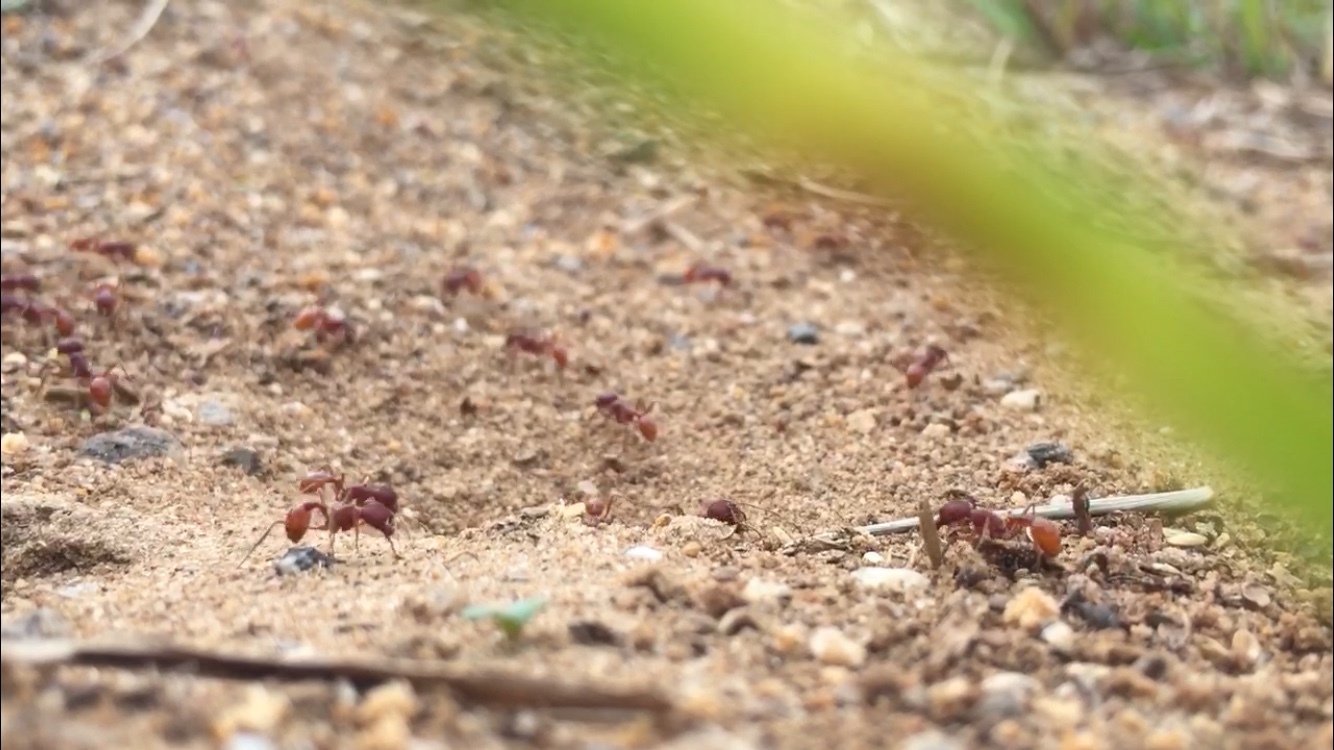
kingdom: Animalia
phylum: Arthropoda
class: Insecta
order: Hymenoptera
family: Formicidae
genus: Pogonomyrmex
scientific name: Pogonomyrmex badius
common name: Florida harvester ant
